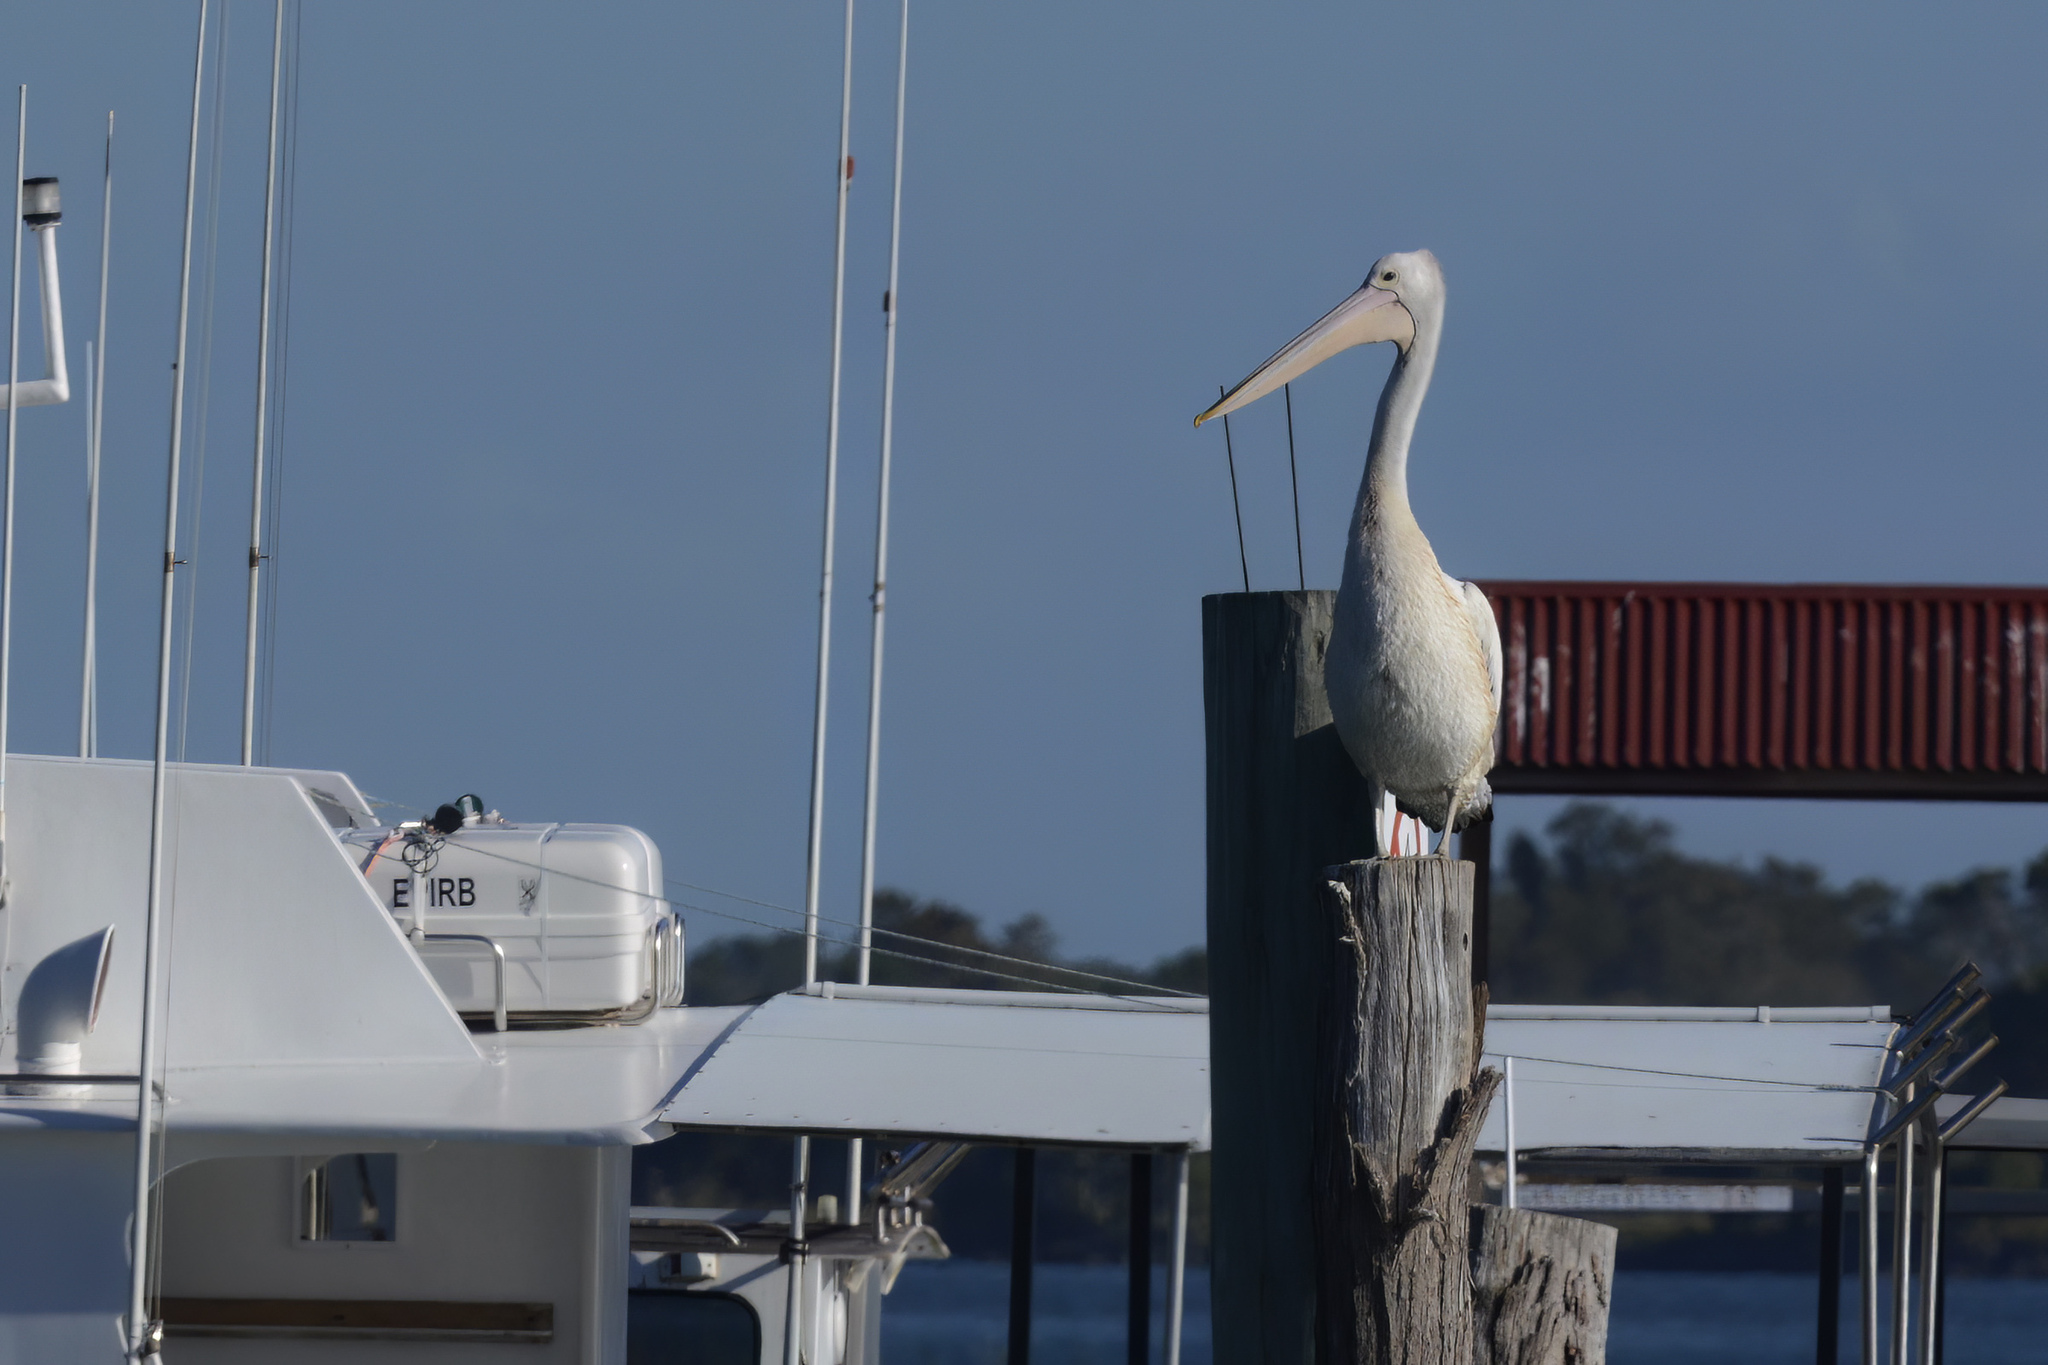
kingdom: Animalia
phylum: Chordata
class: Aves
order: Pelecaniformes
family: Pelecanidae
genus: Pelecanus
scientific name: Pelecanus conspicillatus
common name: Australian pelican
